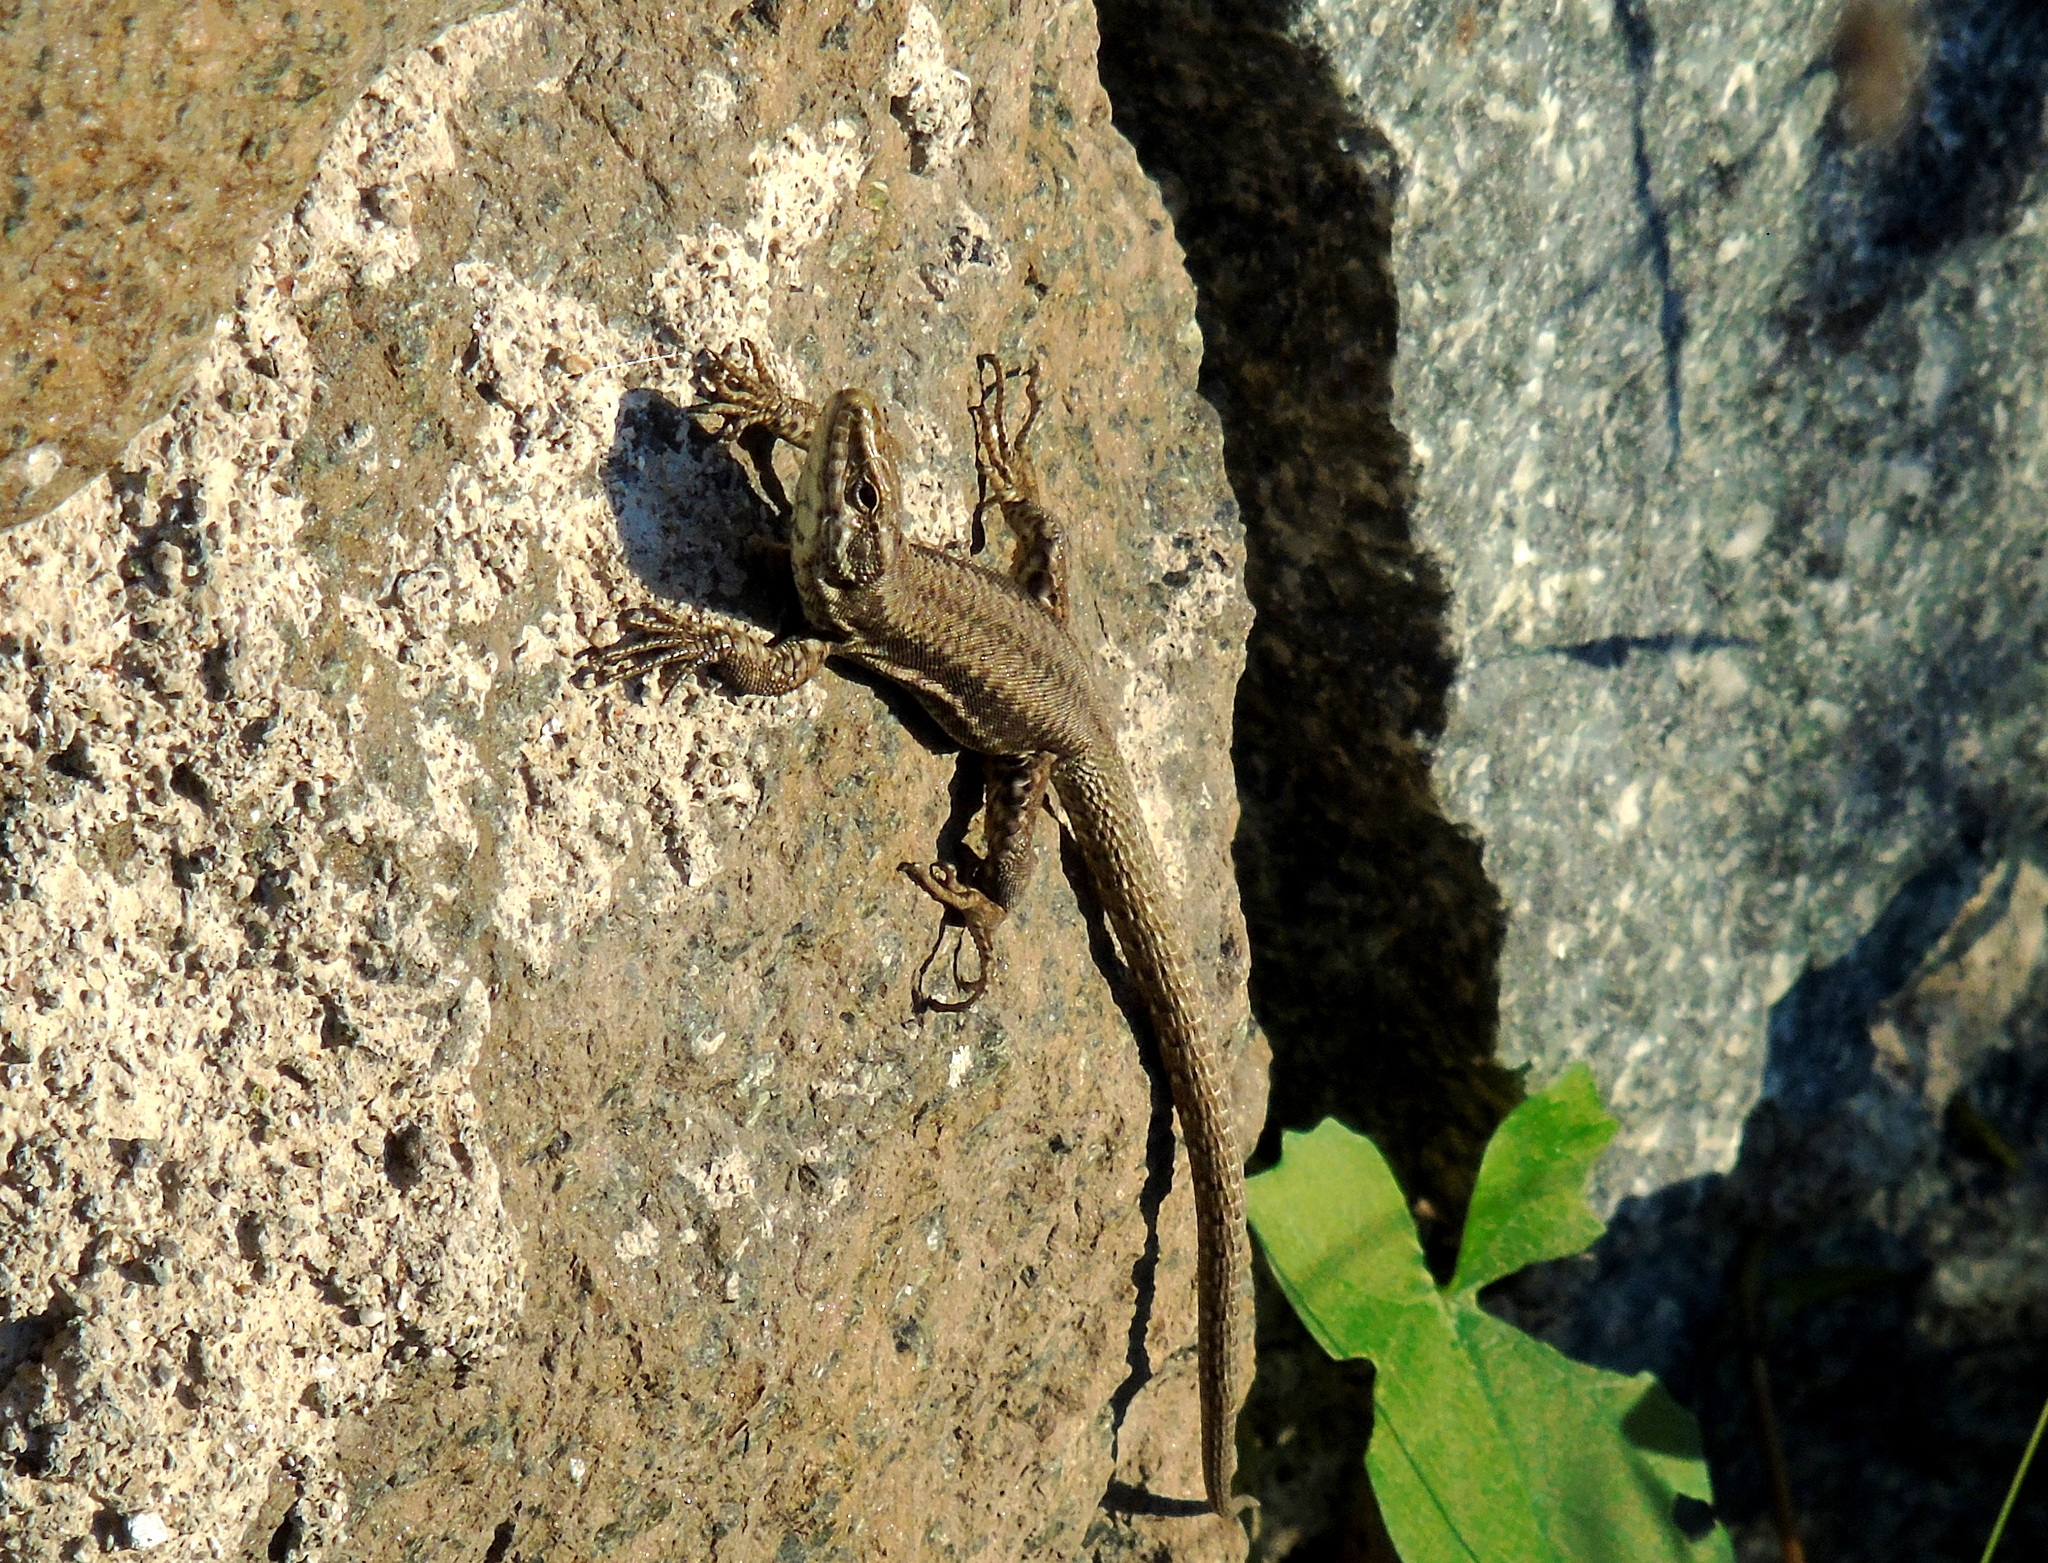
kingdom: Animalia
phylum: Chordata
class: Squamata
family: Lacertidae
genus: Podarcis
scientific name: Podarcis muralis
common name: Common wall lizard
